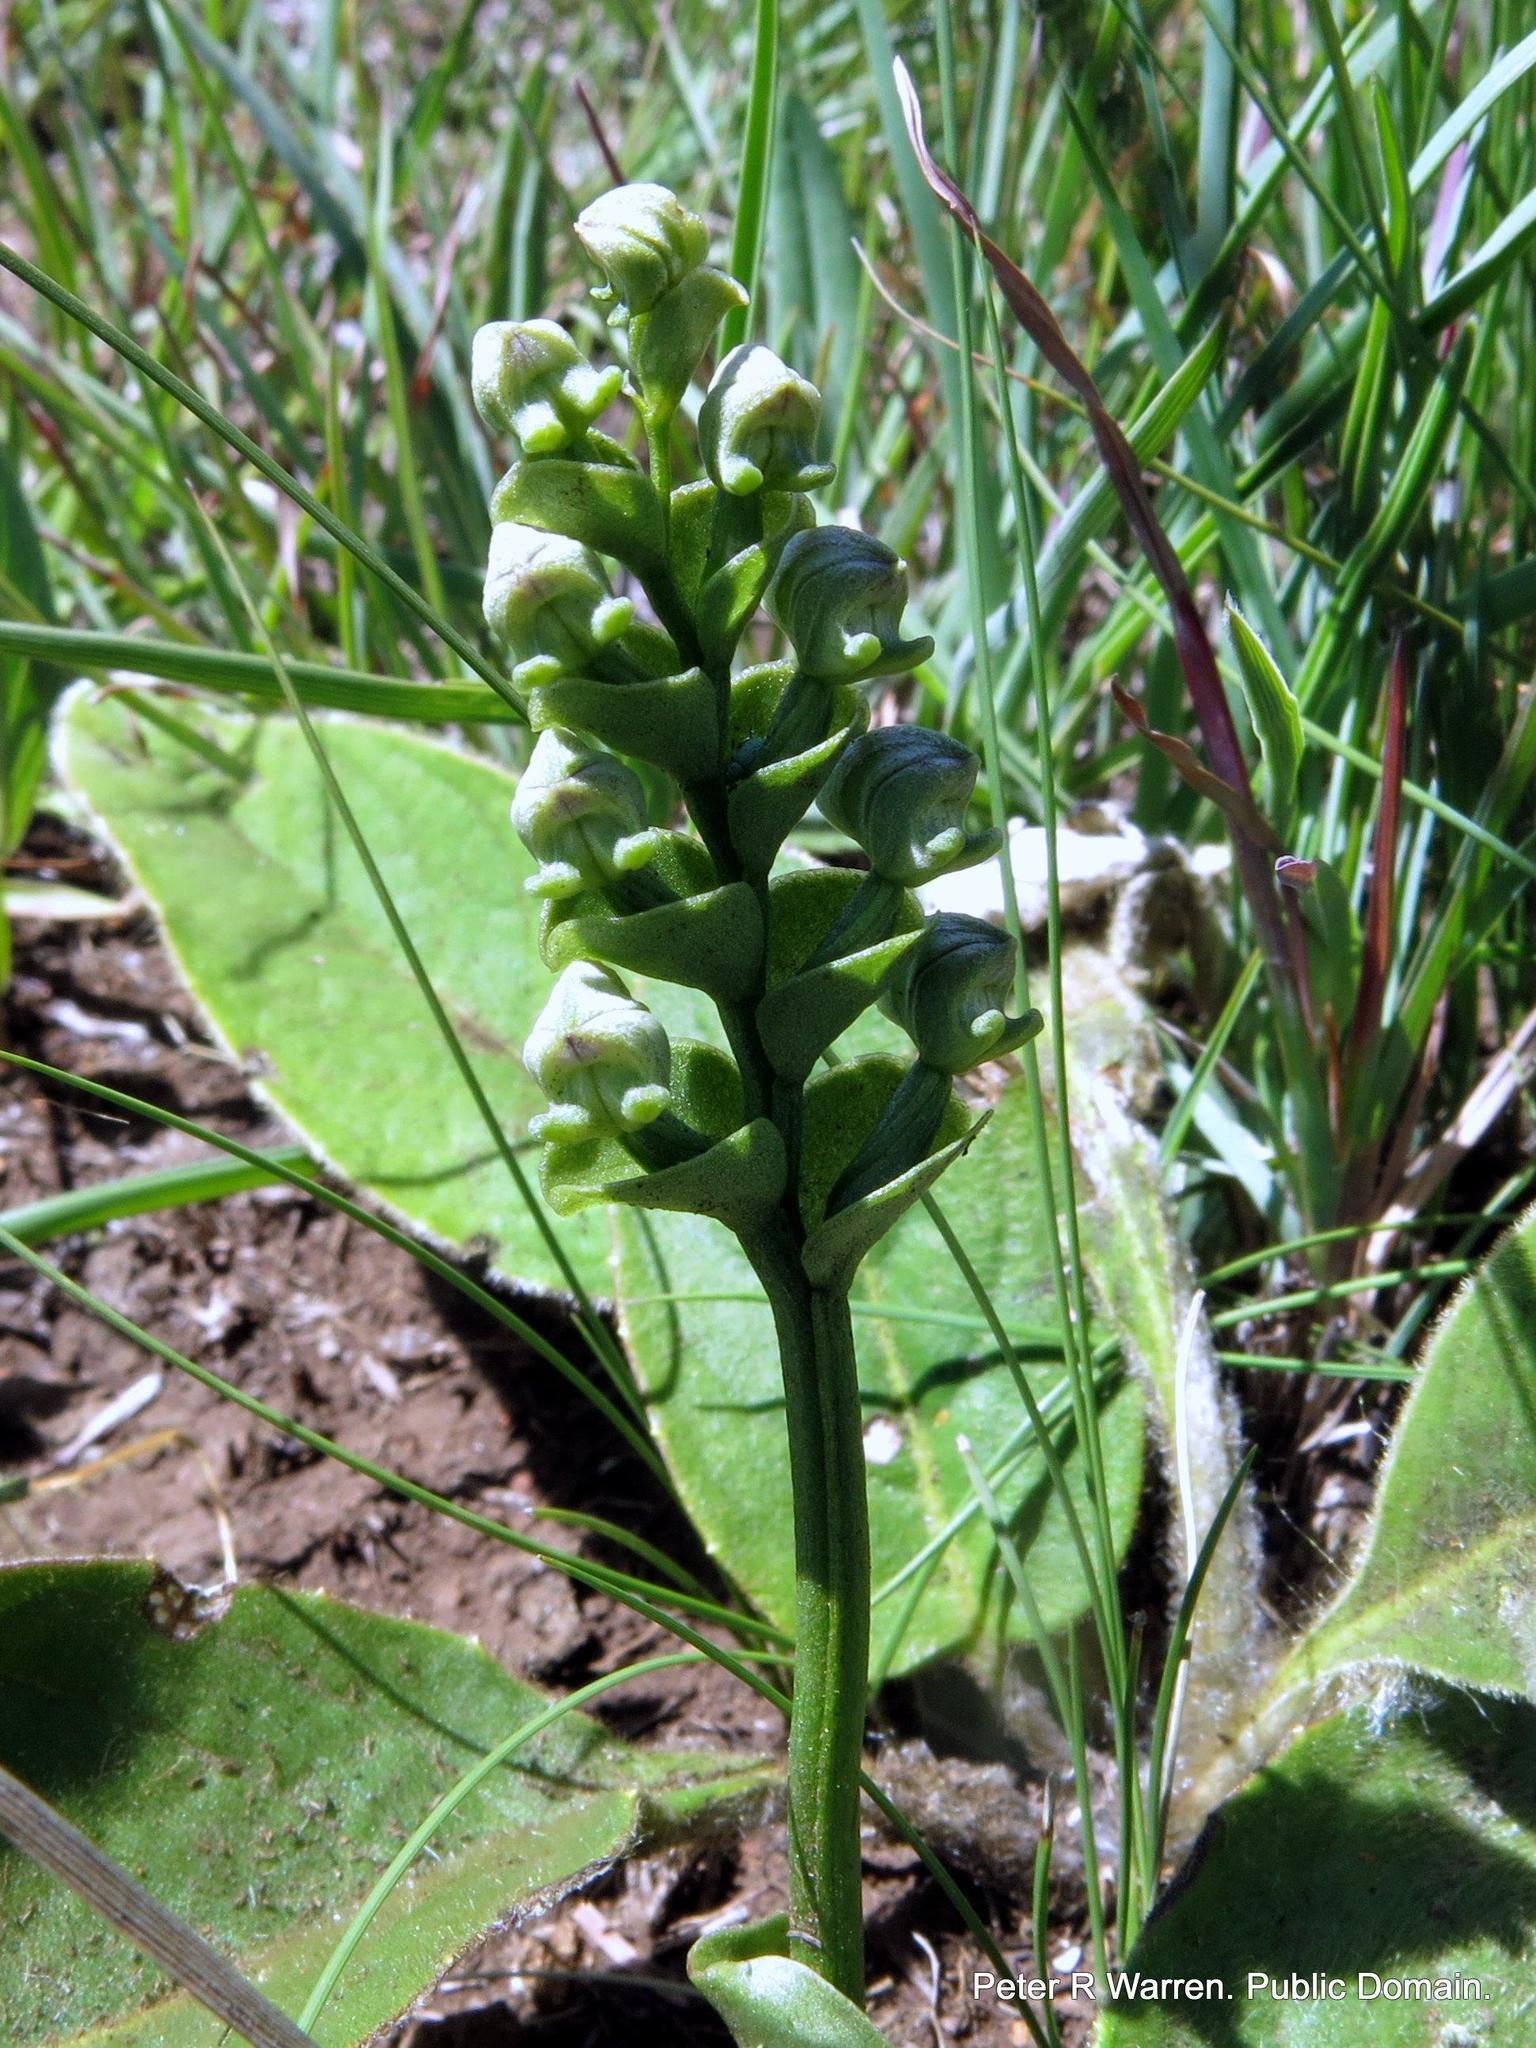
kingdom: Plantae
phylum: Tracheophyta
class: Liliopsida
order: Asparagales
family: Orchidaceae
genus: Disperis
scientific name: Disperis cardiophora
